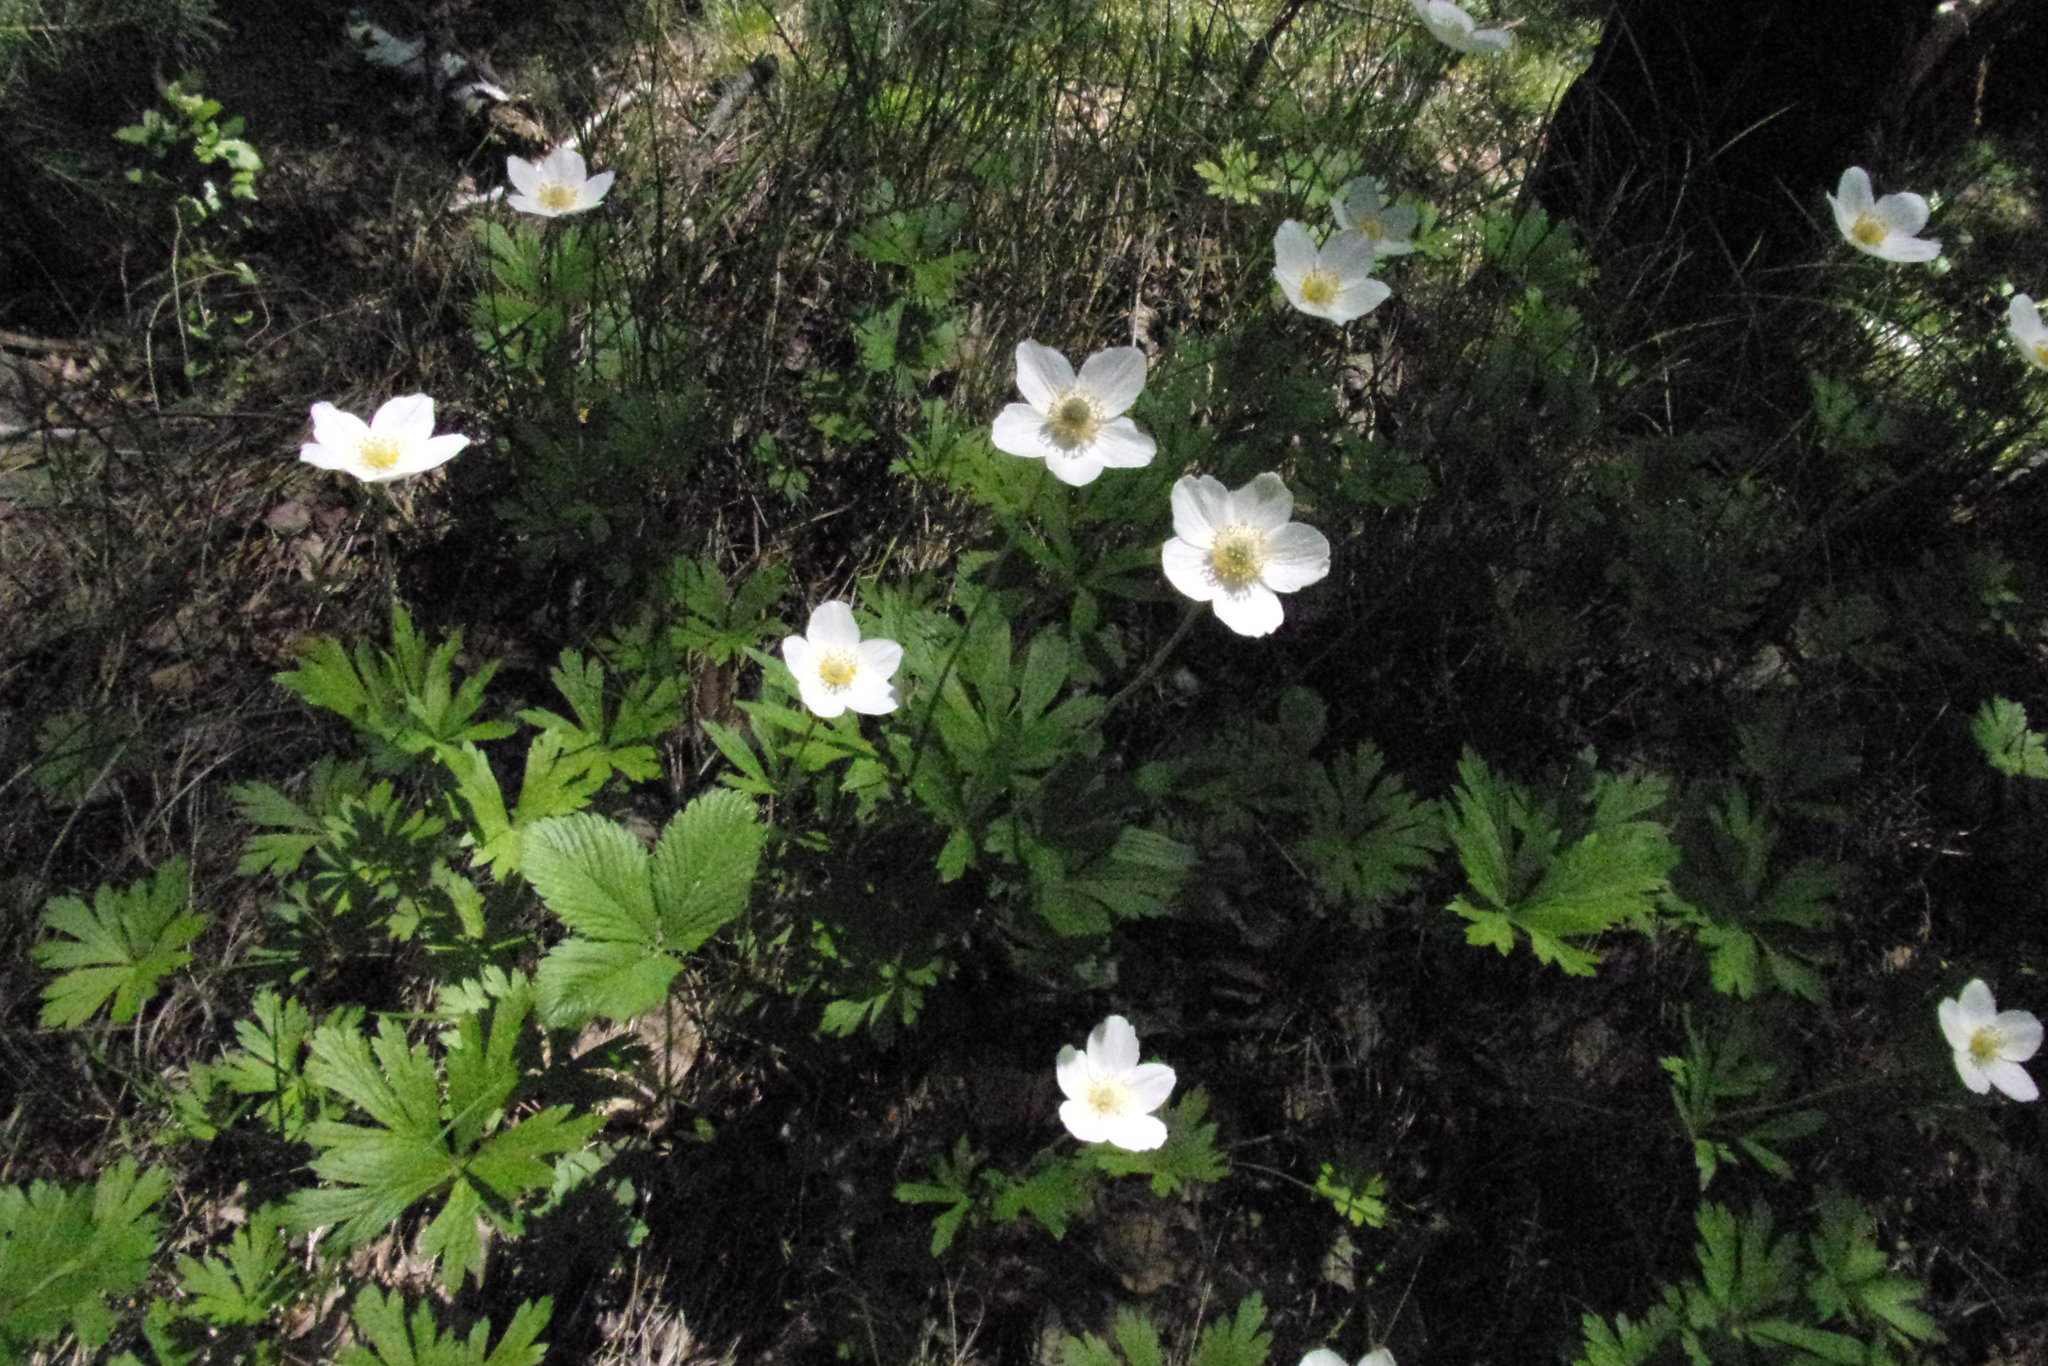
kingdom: Plantae
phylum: Tracheophyta
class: Magnoliopsida
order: Ranunculales
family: Ranunculaceae
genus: Anemone
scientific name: Anemone sylvestris
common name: Snowdrop anemone
